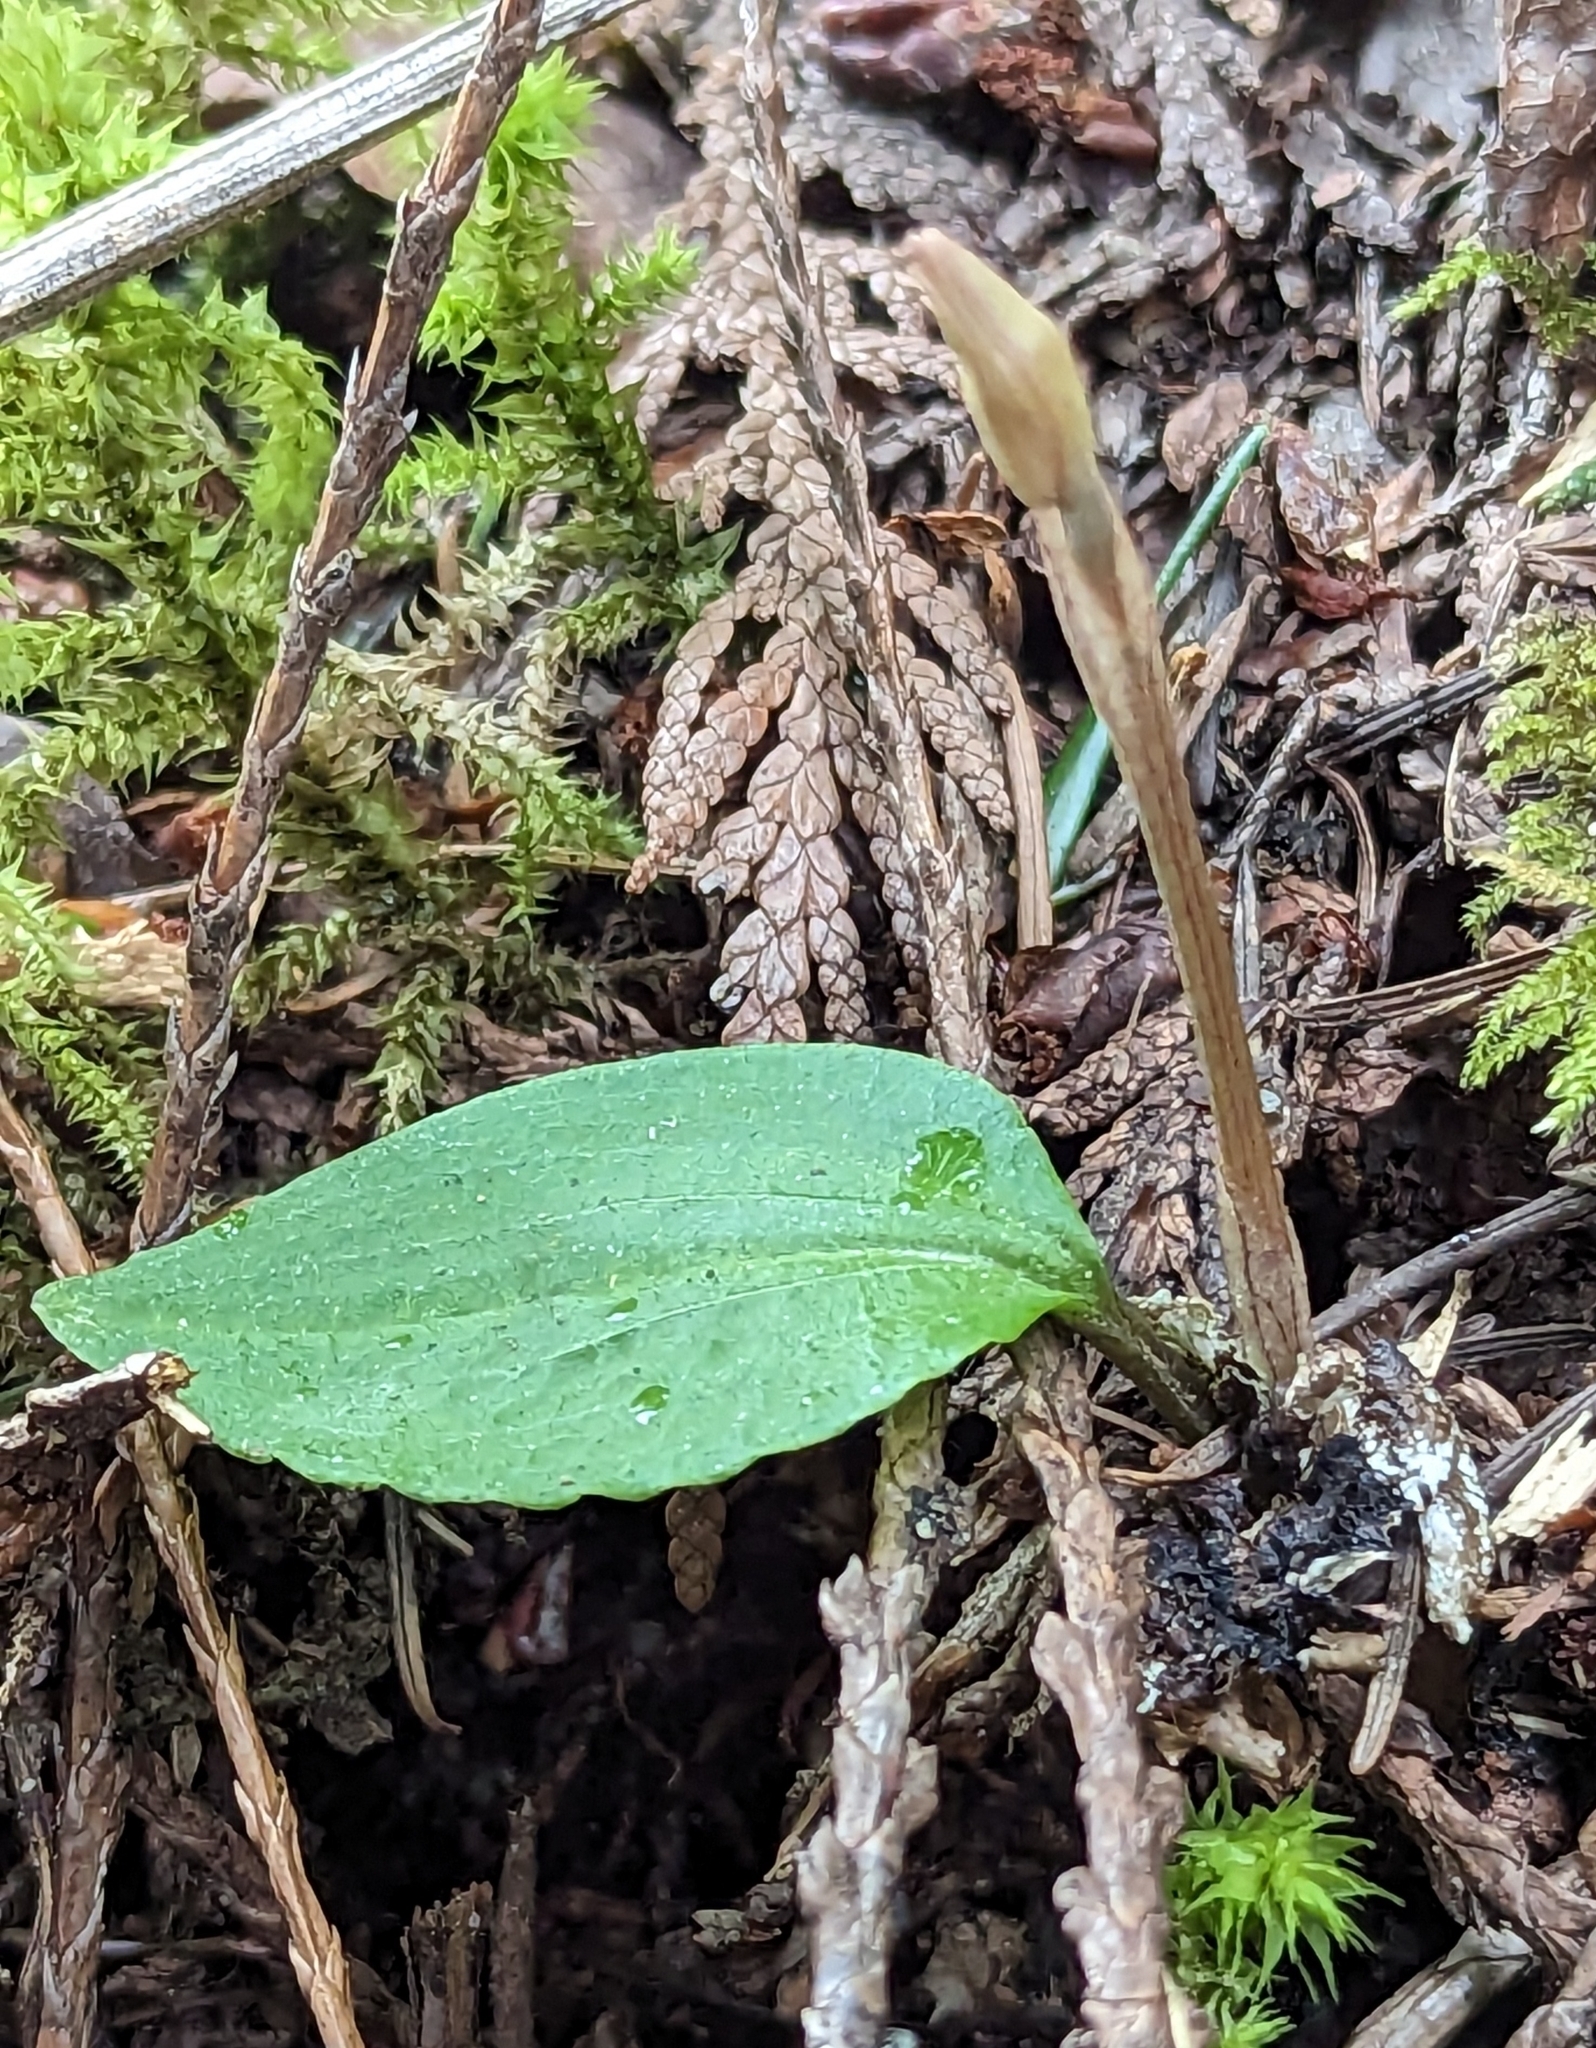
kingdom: Plantae
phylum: Tracheophyta
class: Liliopsida
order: Asparagales
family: Orchidaceae
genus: Calypso
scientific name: Calypso bulbosa
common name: Calypso
